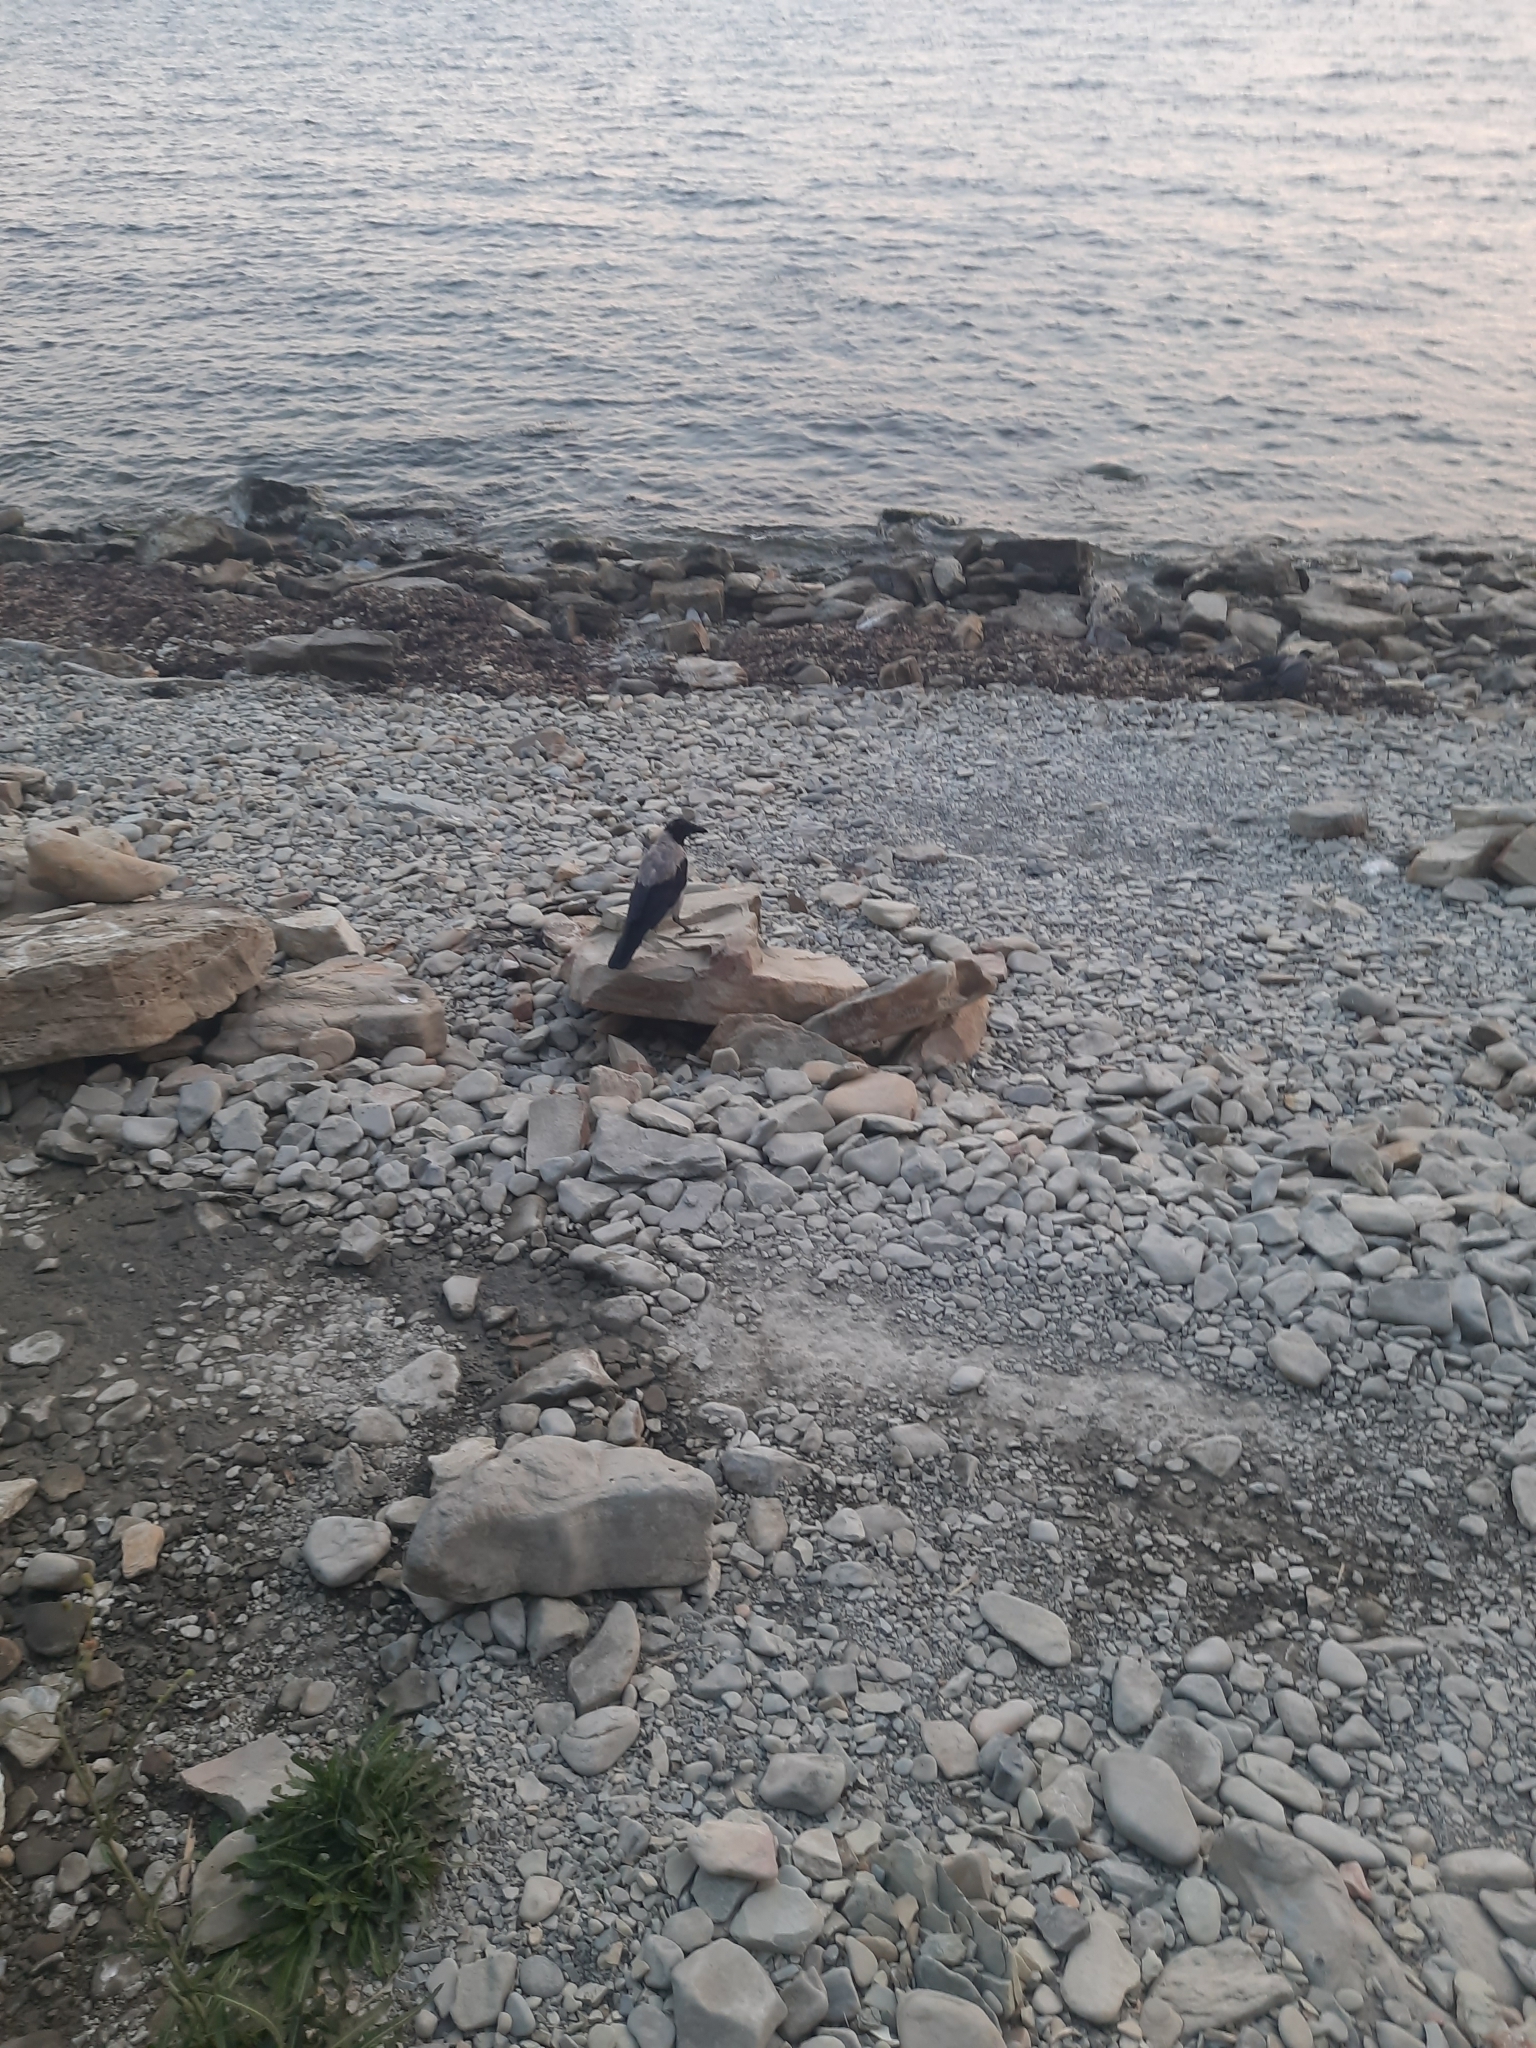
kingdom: Animalia
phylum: Chordata
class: Aves
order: Passeriformes
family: Corvidae
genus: Corvus
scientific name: Corvus cornix
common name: Hooded crow
